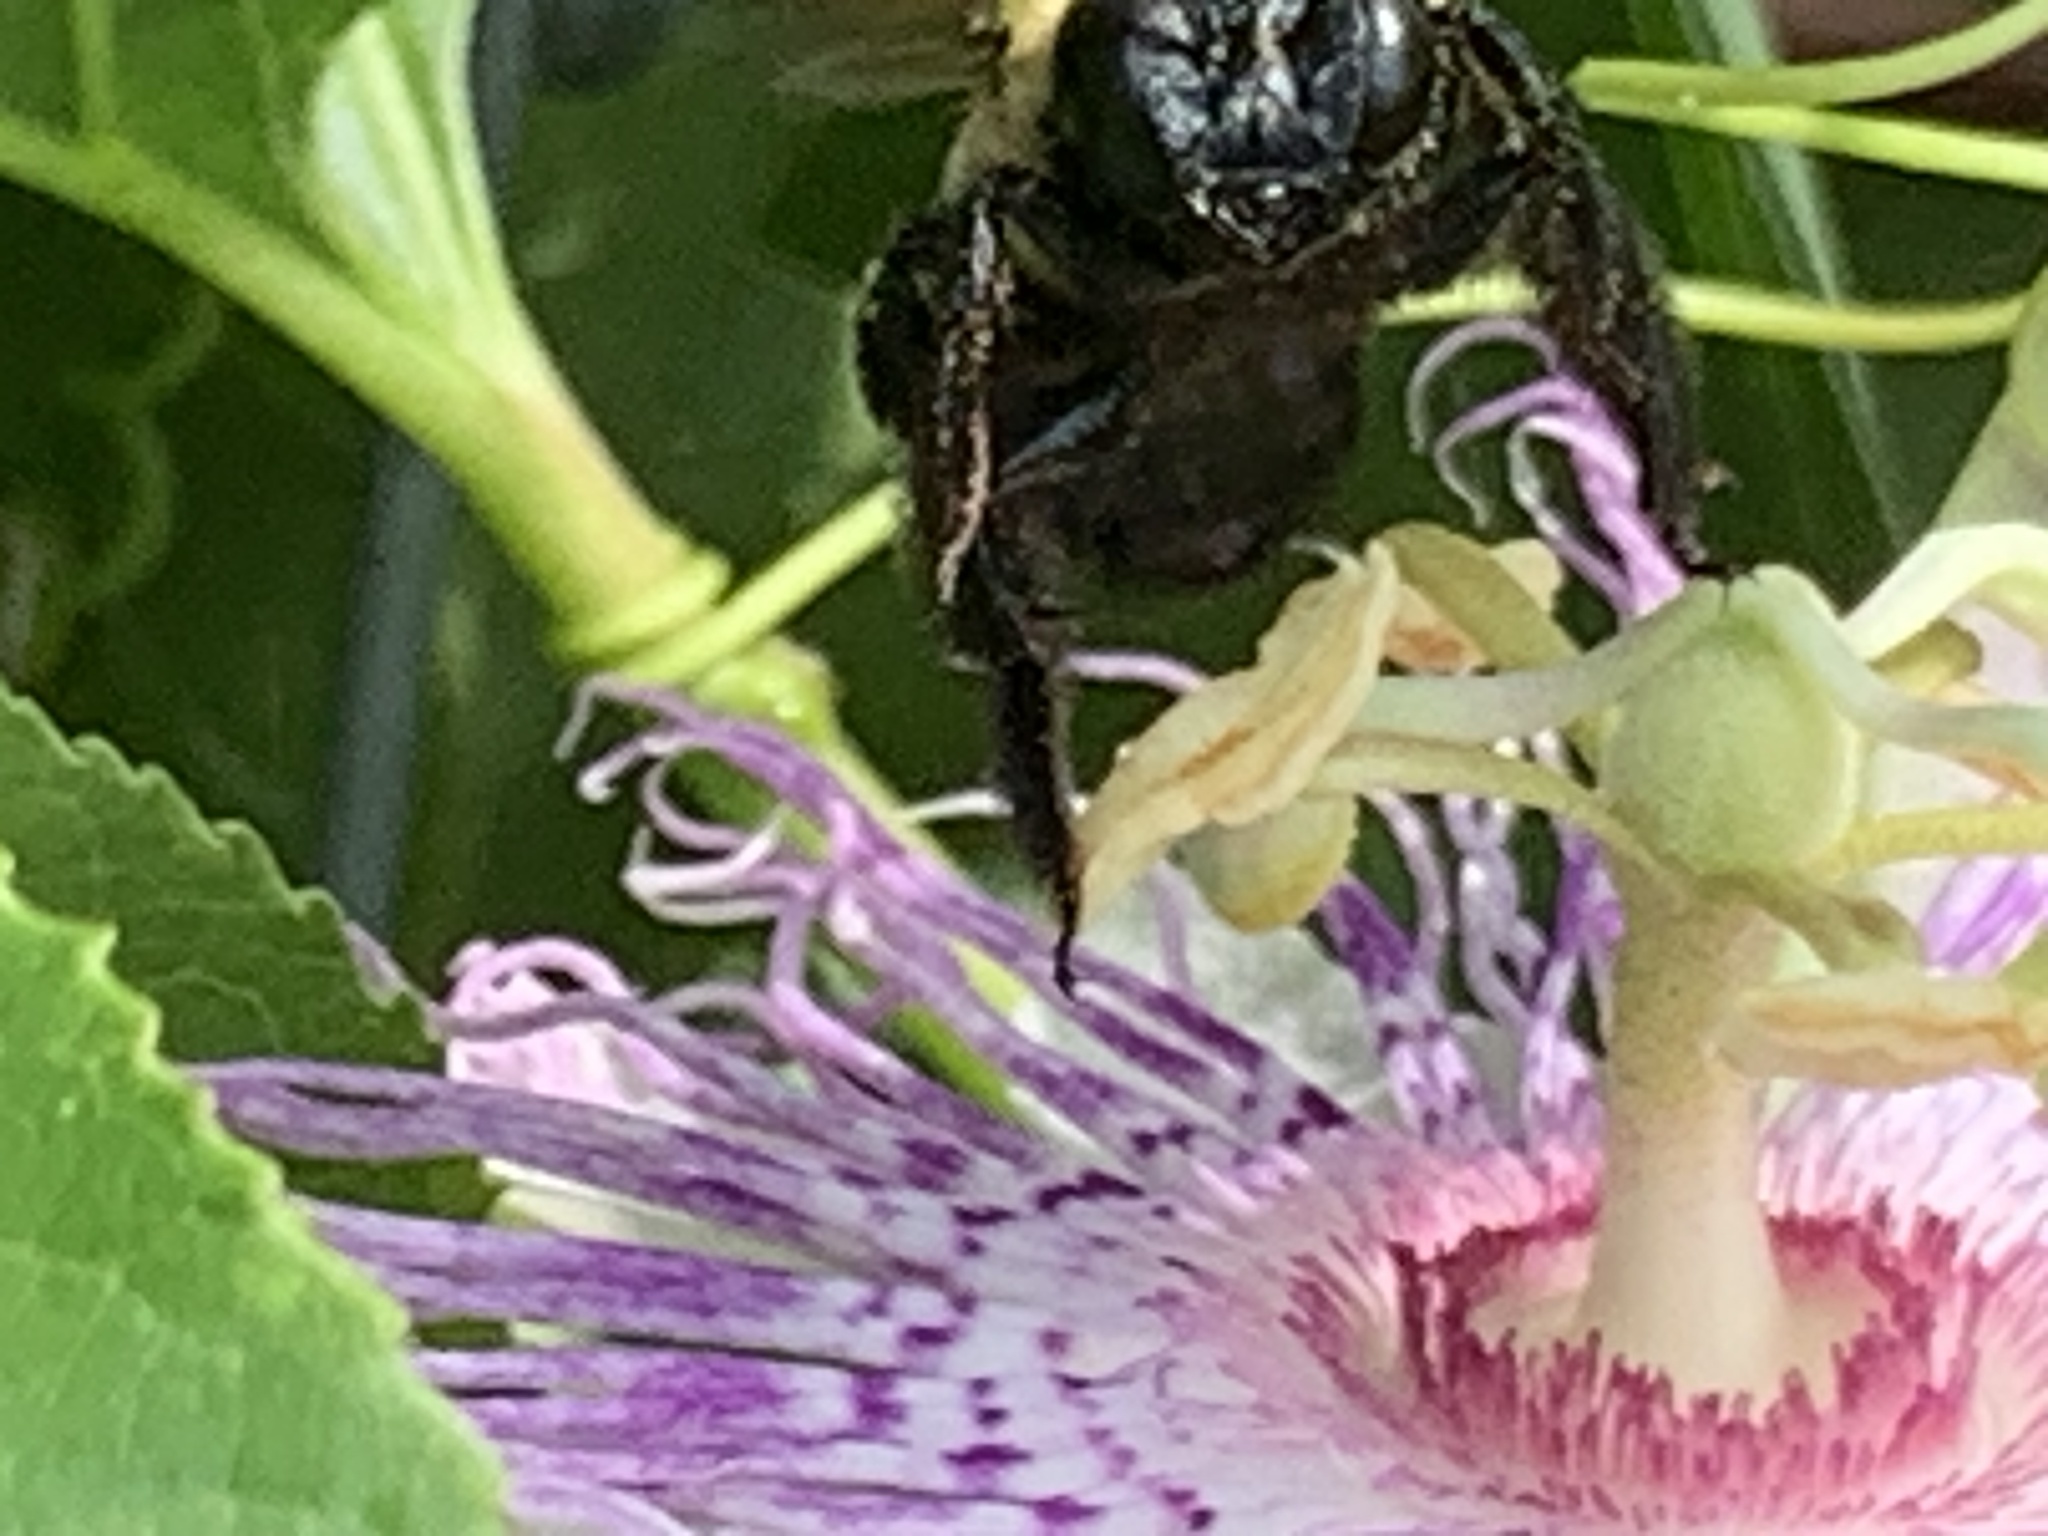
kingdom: Animalia
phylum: Arthropoda
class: Insecta
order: Hymenoptera
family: Apidae
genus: Xylocopa
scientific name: Xylocopa virginica
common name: Carpenter bee
